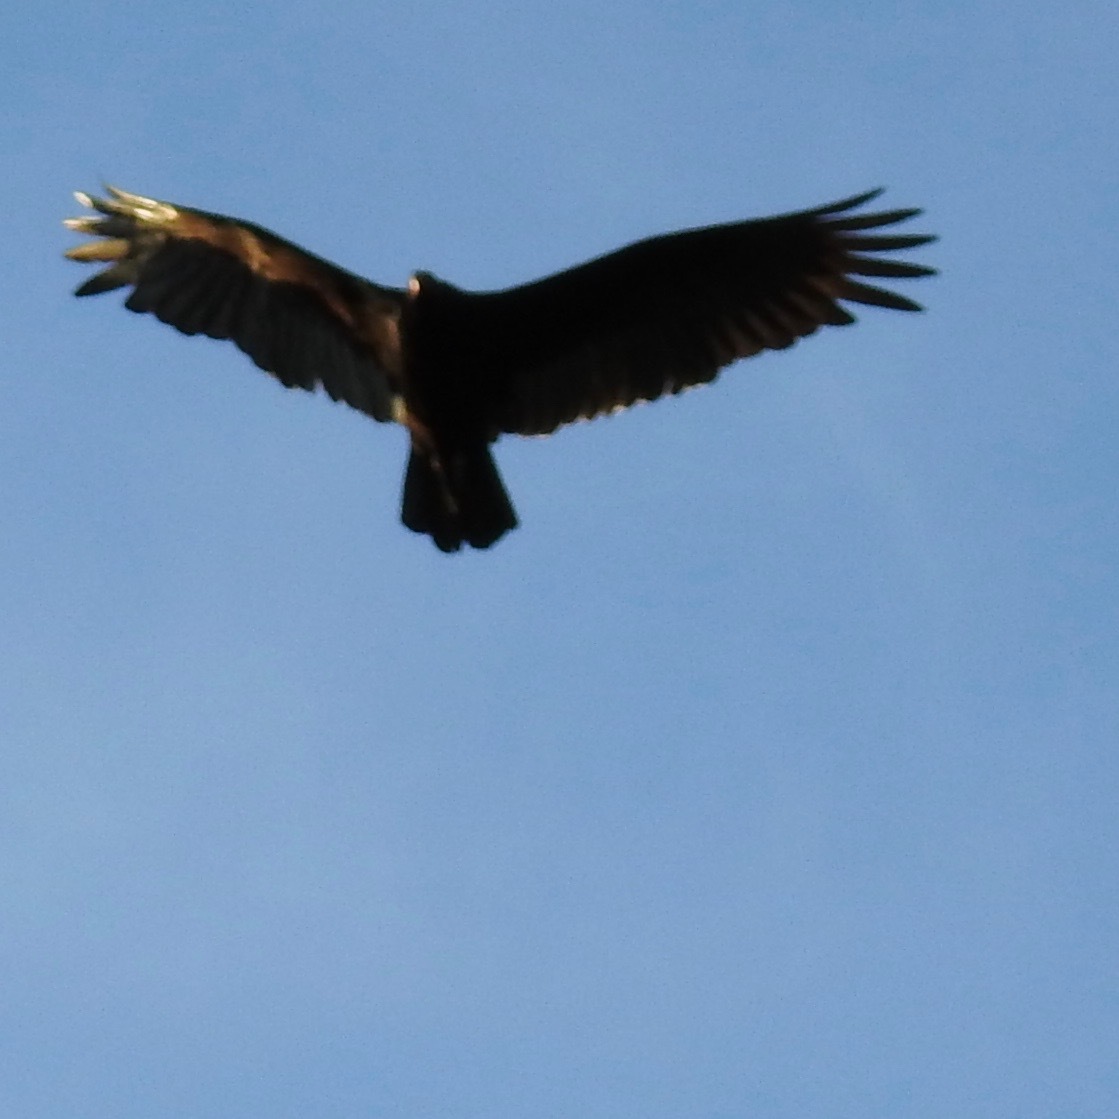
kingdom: Animalia
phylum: Chordata
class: Aves
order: Accipitriformes
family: Cathartidae
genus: Cathartes
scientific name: Cathartes aura
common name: Turkey vulture
